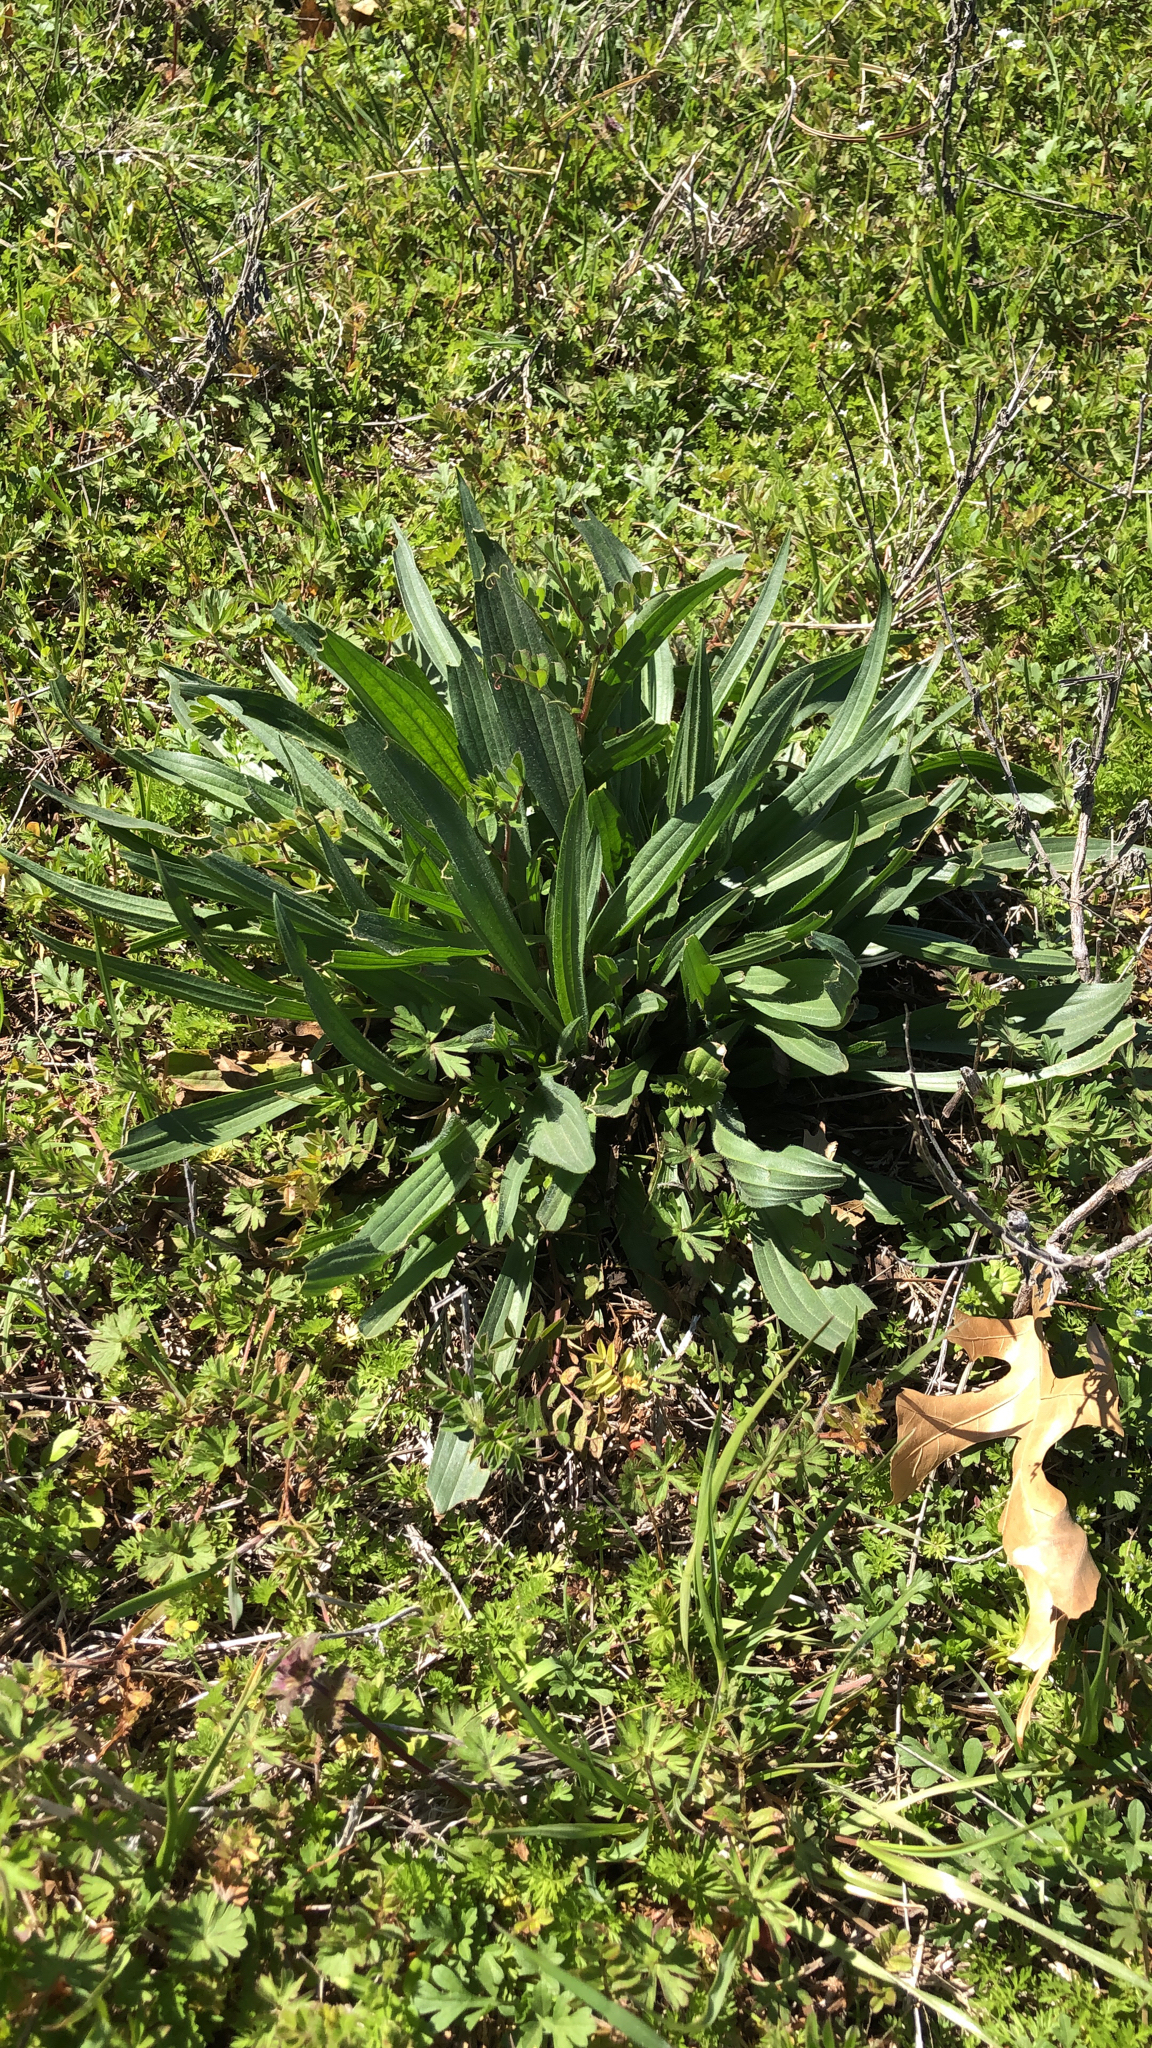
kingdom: Plantae
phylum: Tracheophyta
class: Magnoliopsida
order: Lamiales
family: Plantaginaceae
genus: Plantago
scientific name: Plantago lanceolata
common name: Ribwort plantain
